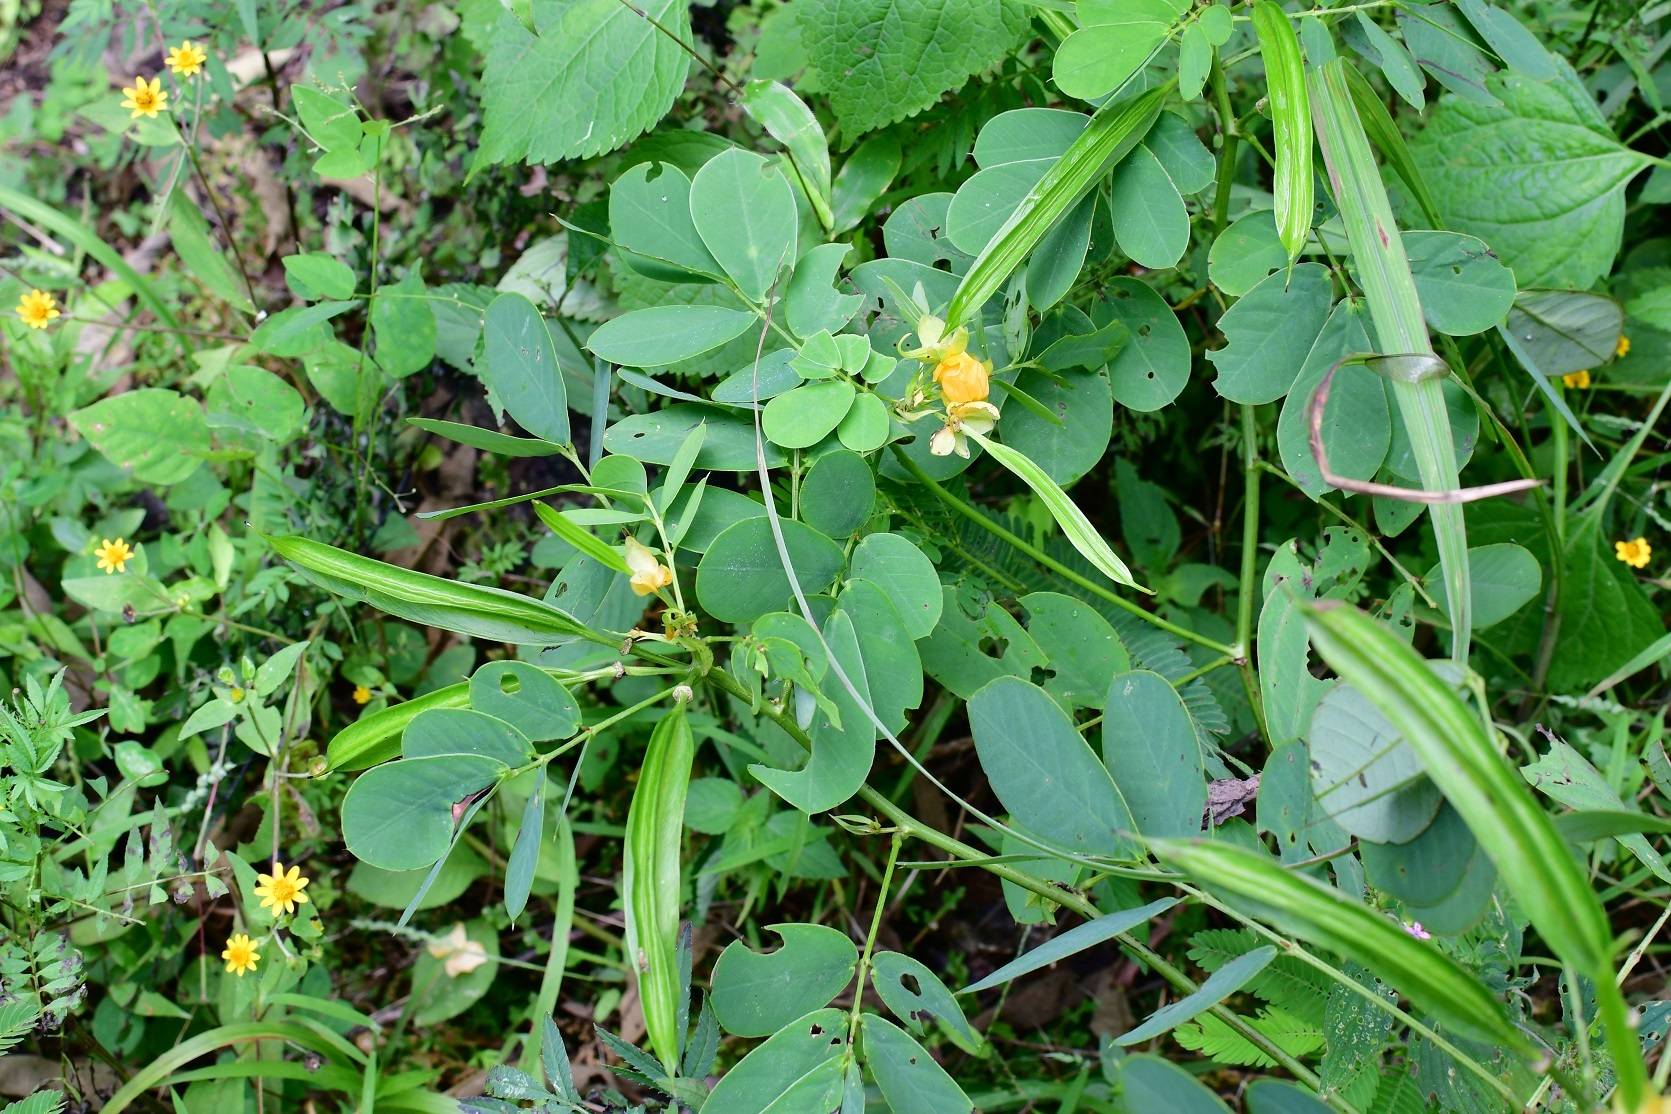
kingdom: Plantae
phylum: Tracheophyta
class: Magnoliopsida
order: Fabales
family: Fabaceae
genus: Senna
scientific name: Senna alata
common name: Emperor's candlesticks
